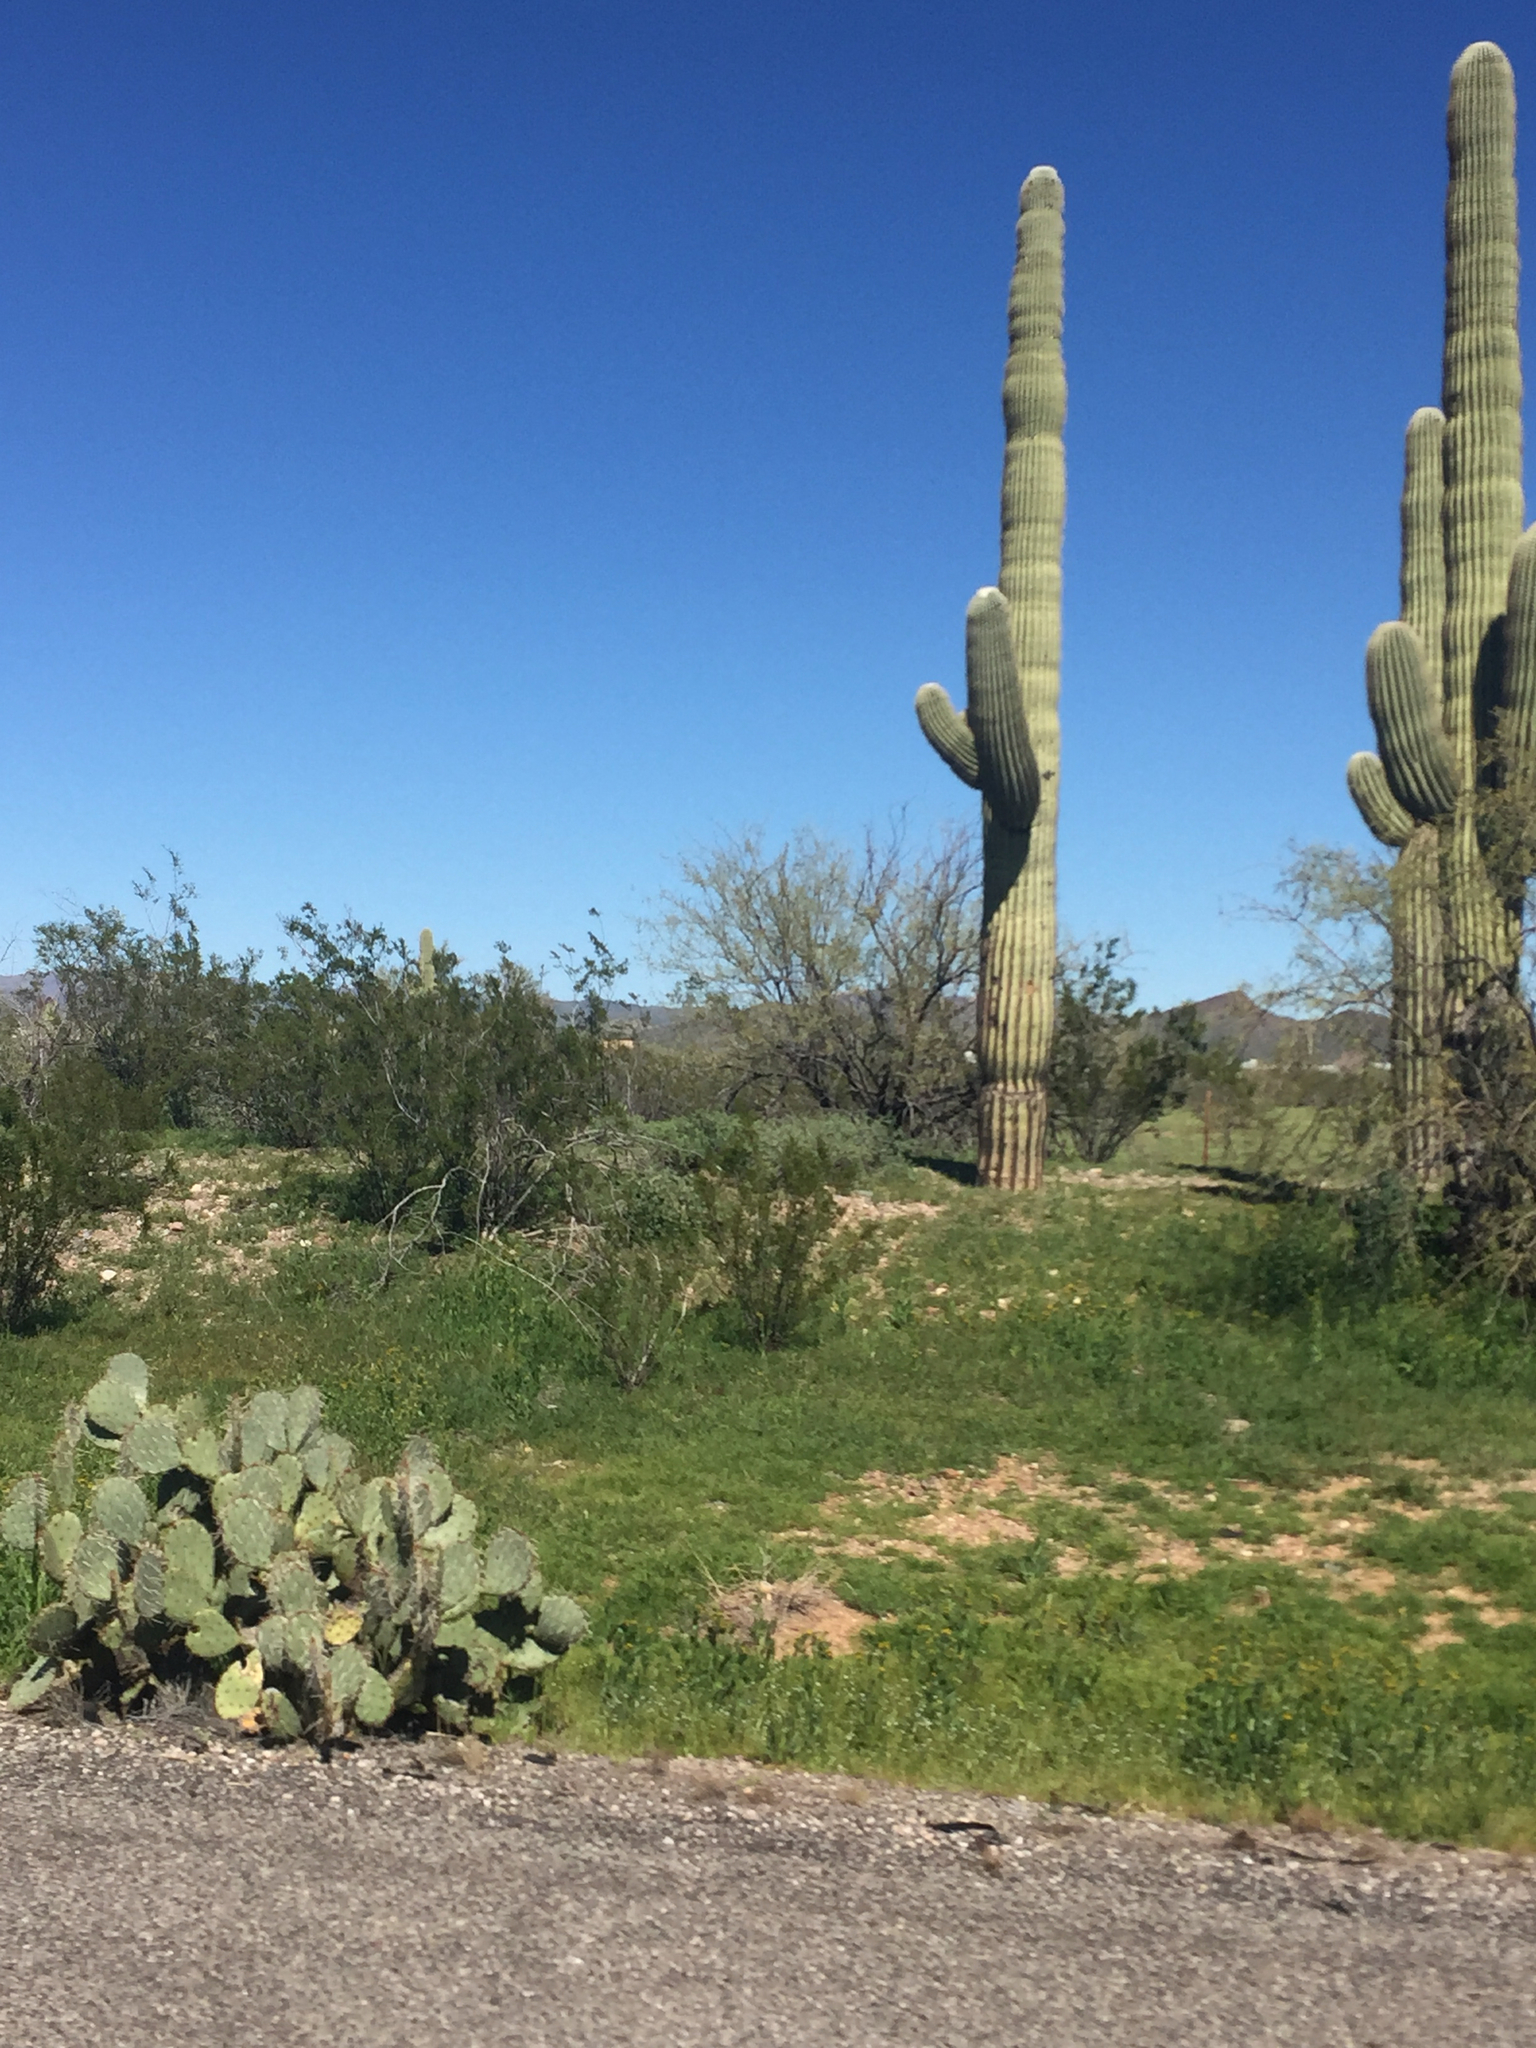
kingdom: Plantae
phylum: Tracheophyta
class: Magnoliopsida
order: Caryophyllales
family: Cactaceae
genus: Carnegiea
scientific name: Carnegiea gigantea
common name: Saguaro
